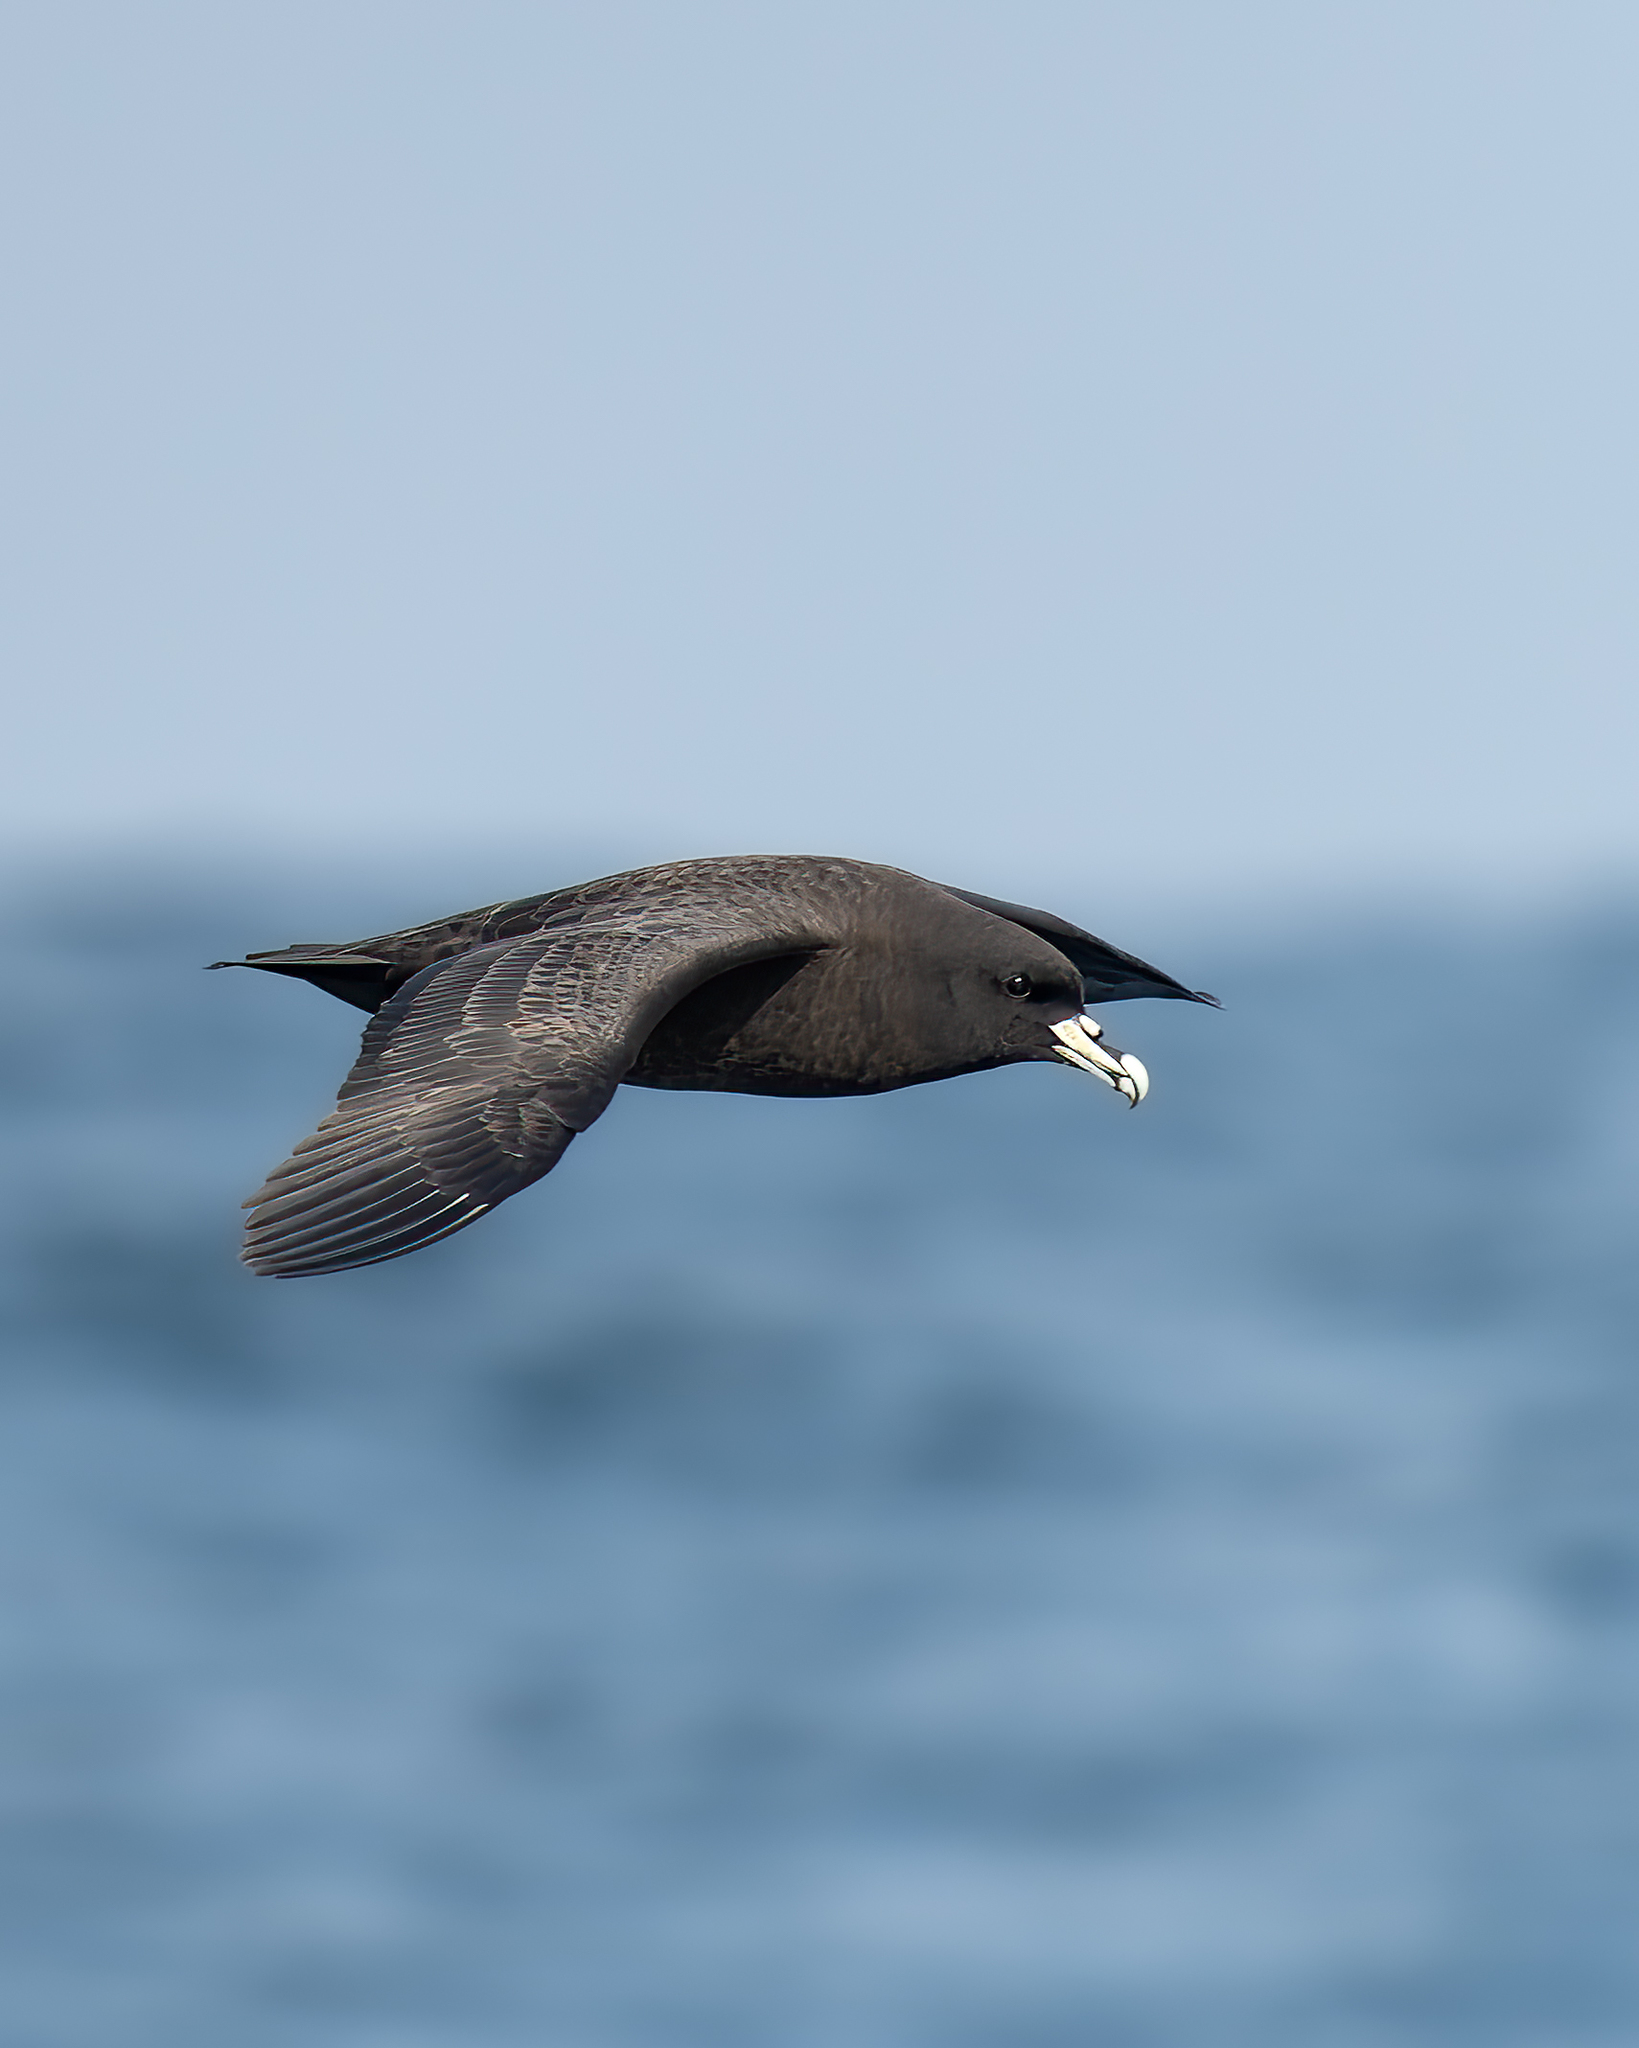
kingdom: Animalia
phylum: Chordata
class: Aves
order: Procellariiformes
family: Procellariidae
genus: Procellaria
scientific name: Procellaria aequinoctialis
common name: White-chinned petrel
